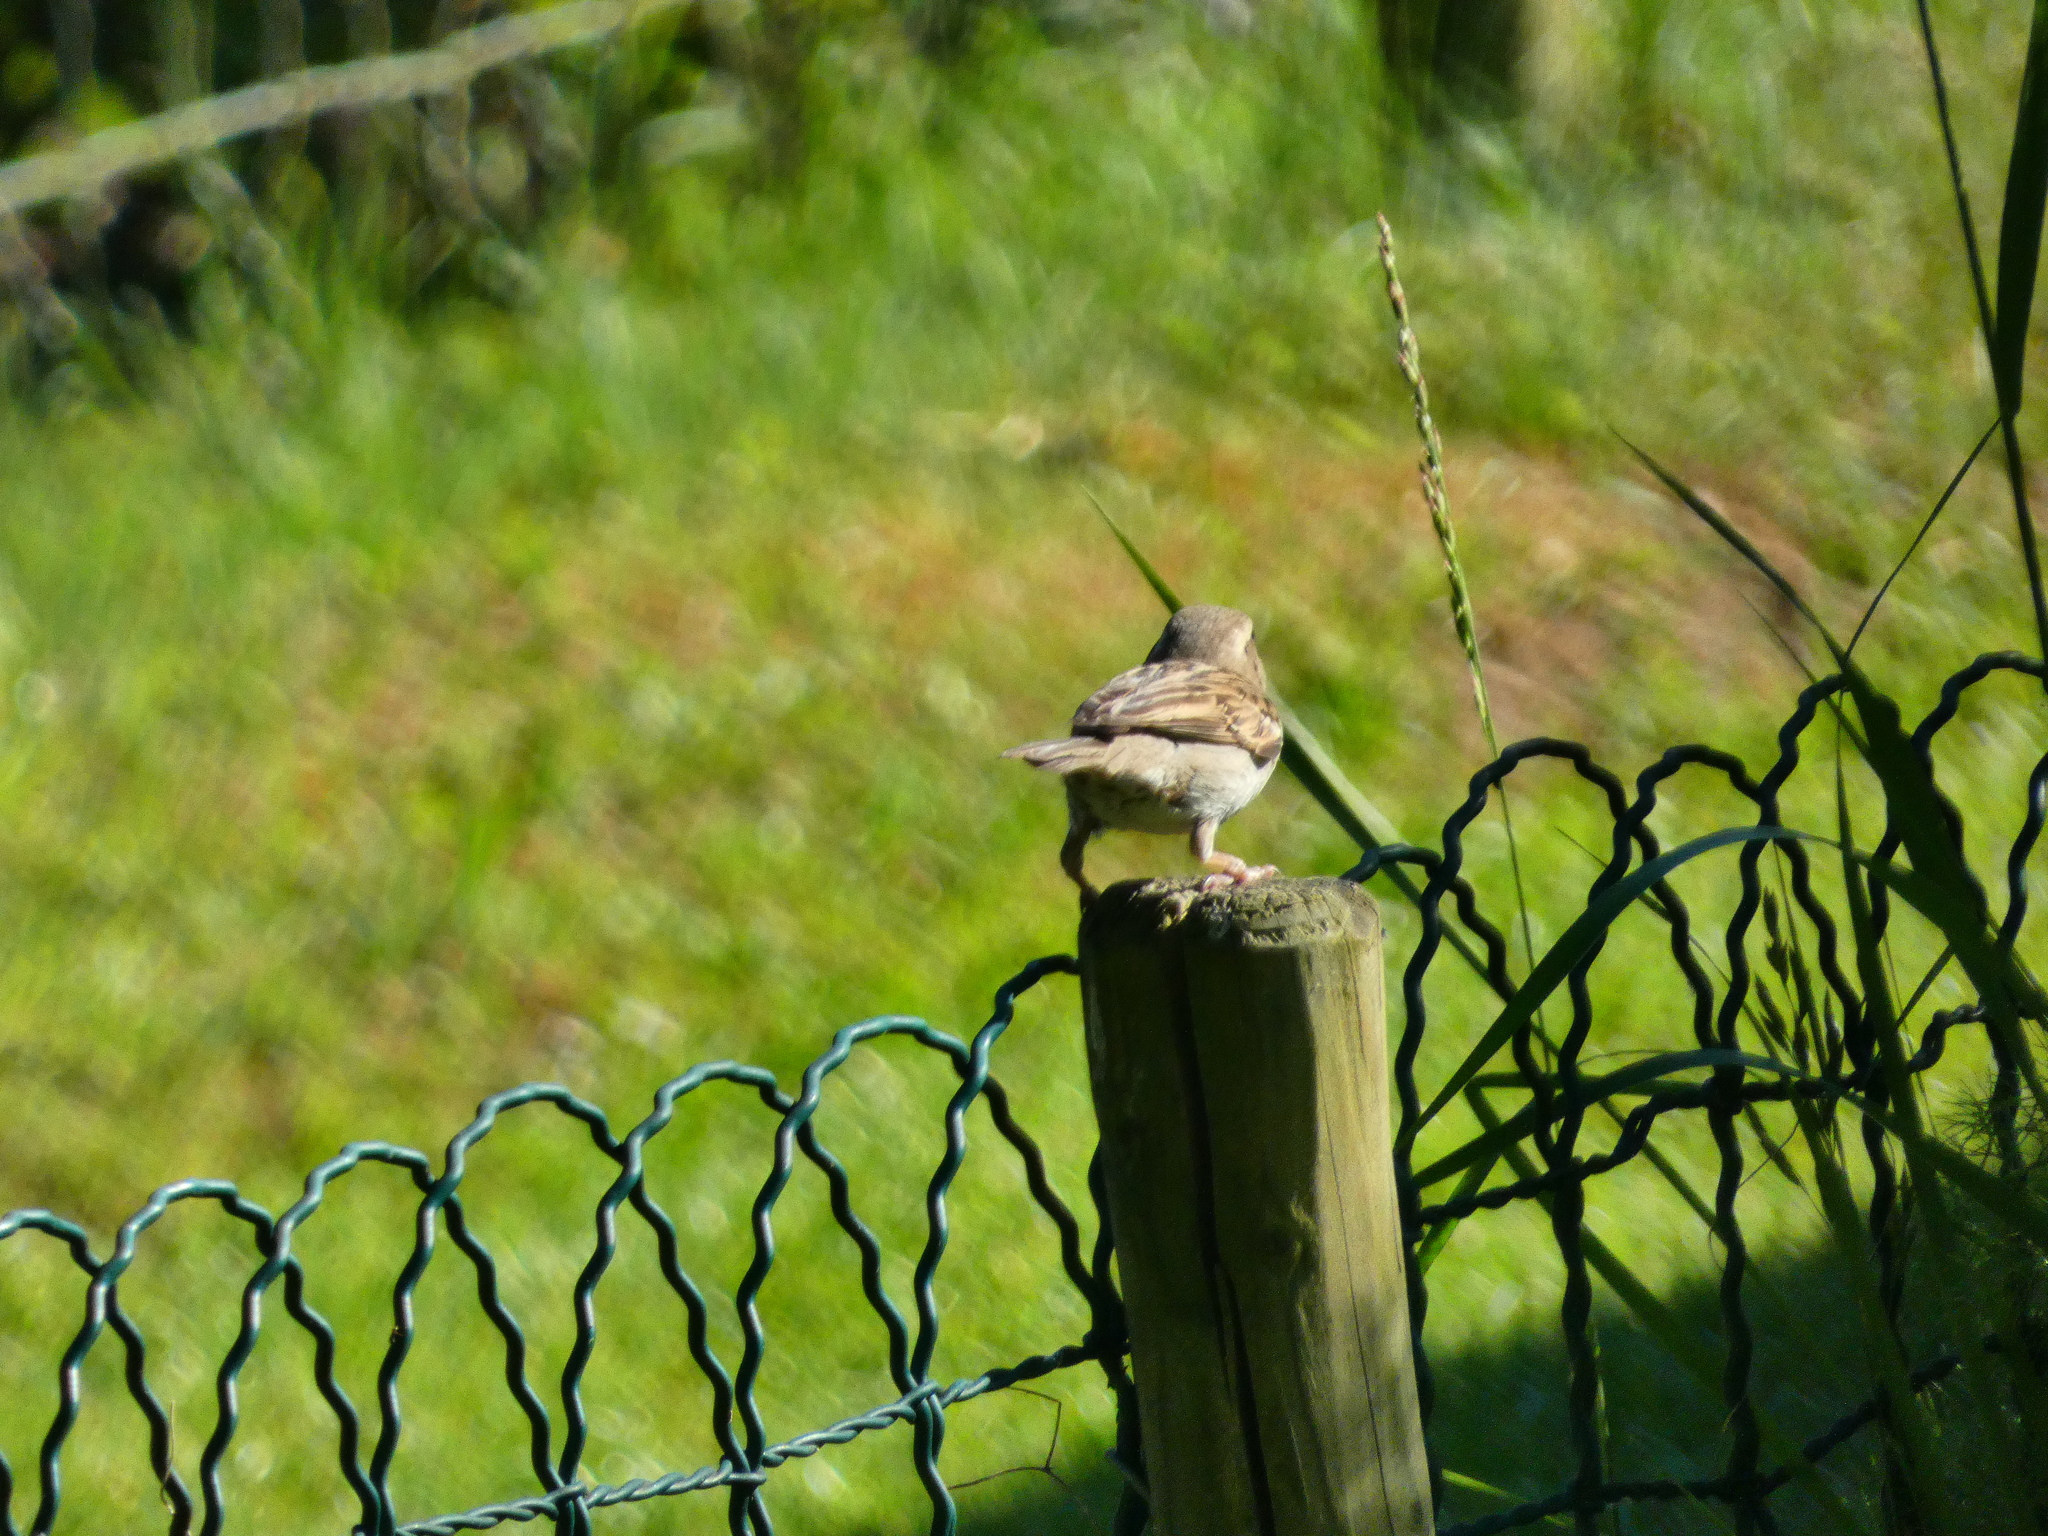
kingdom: Animalia
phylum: Chordata
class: Aves
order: Passeriformes
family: Passeridae
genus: Passer
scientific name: Passer domesticus
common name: House sparrow
